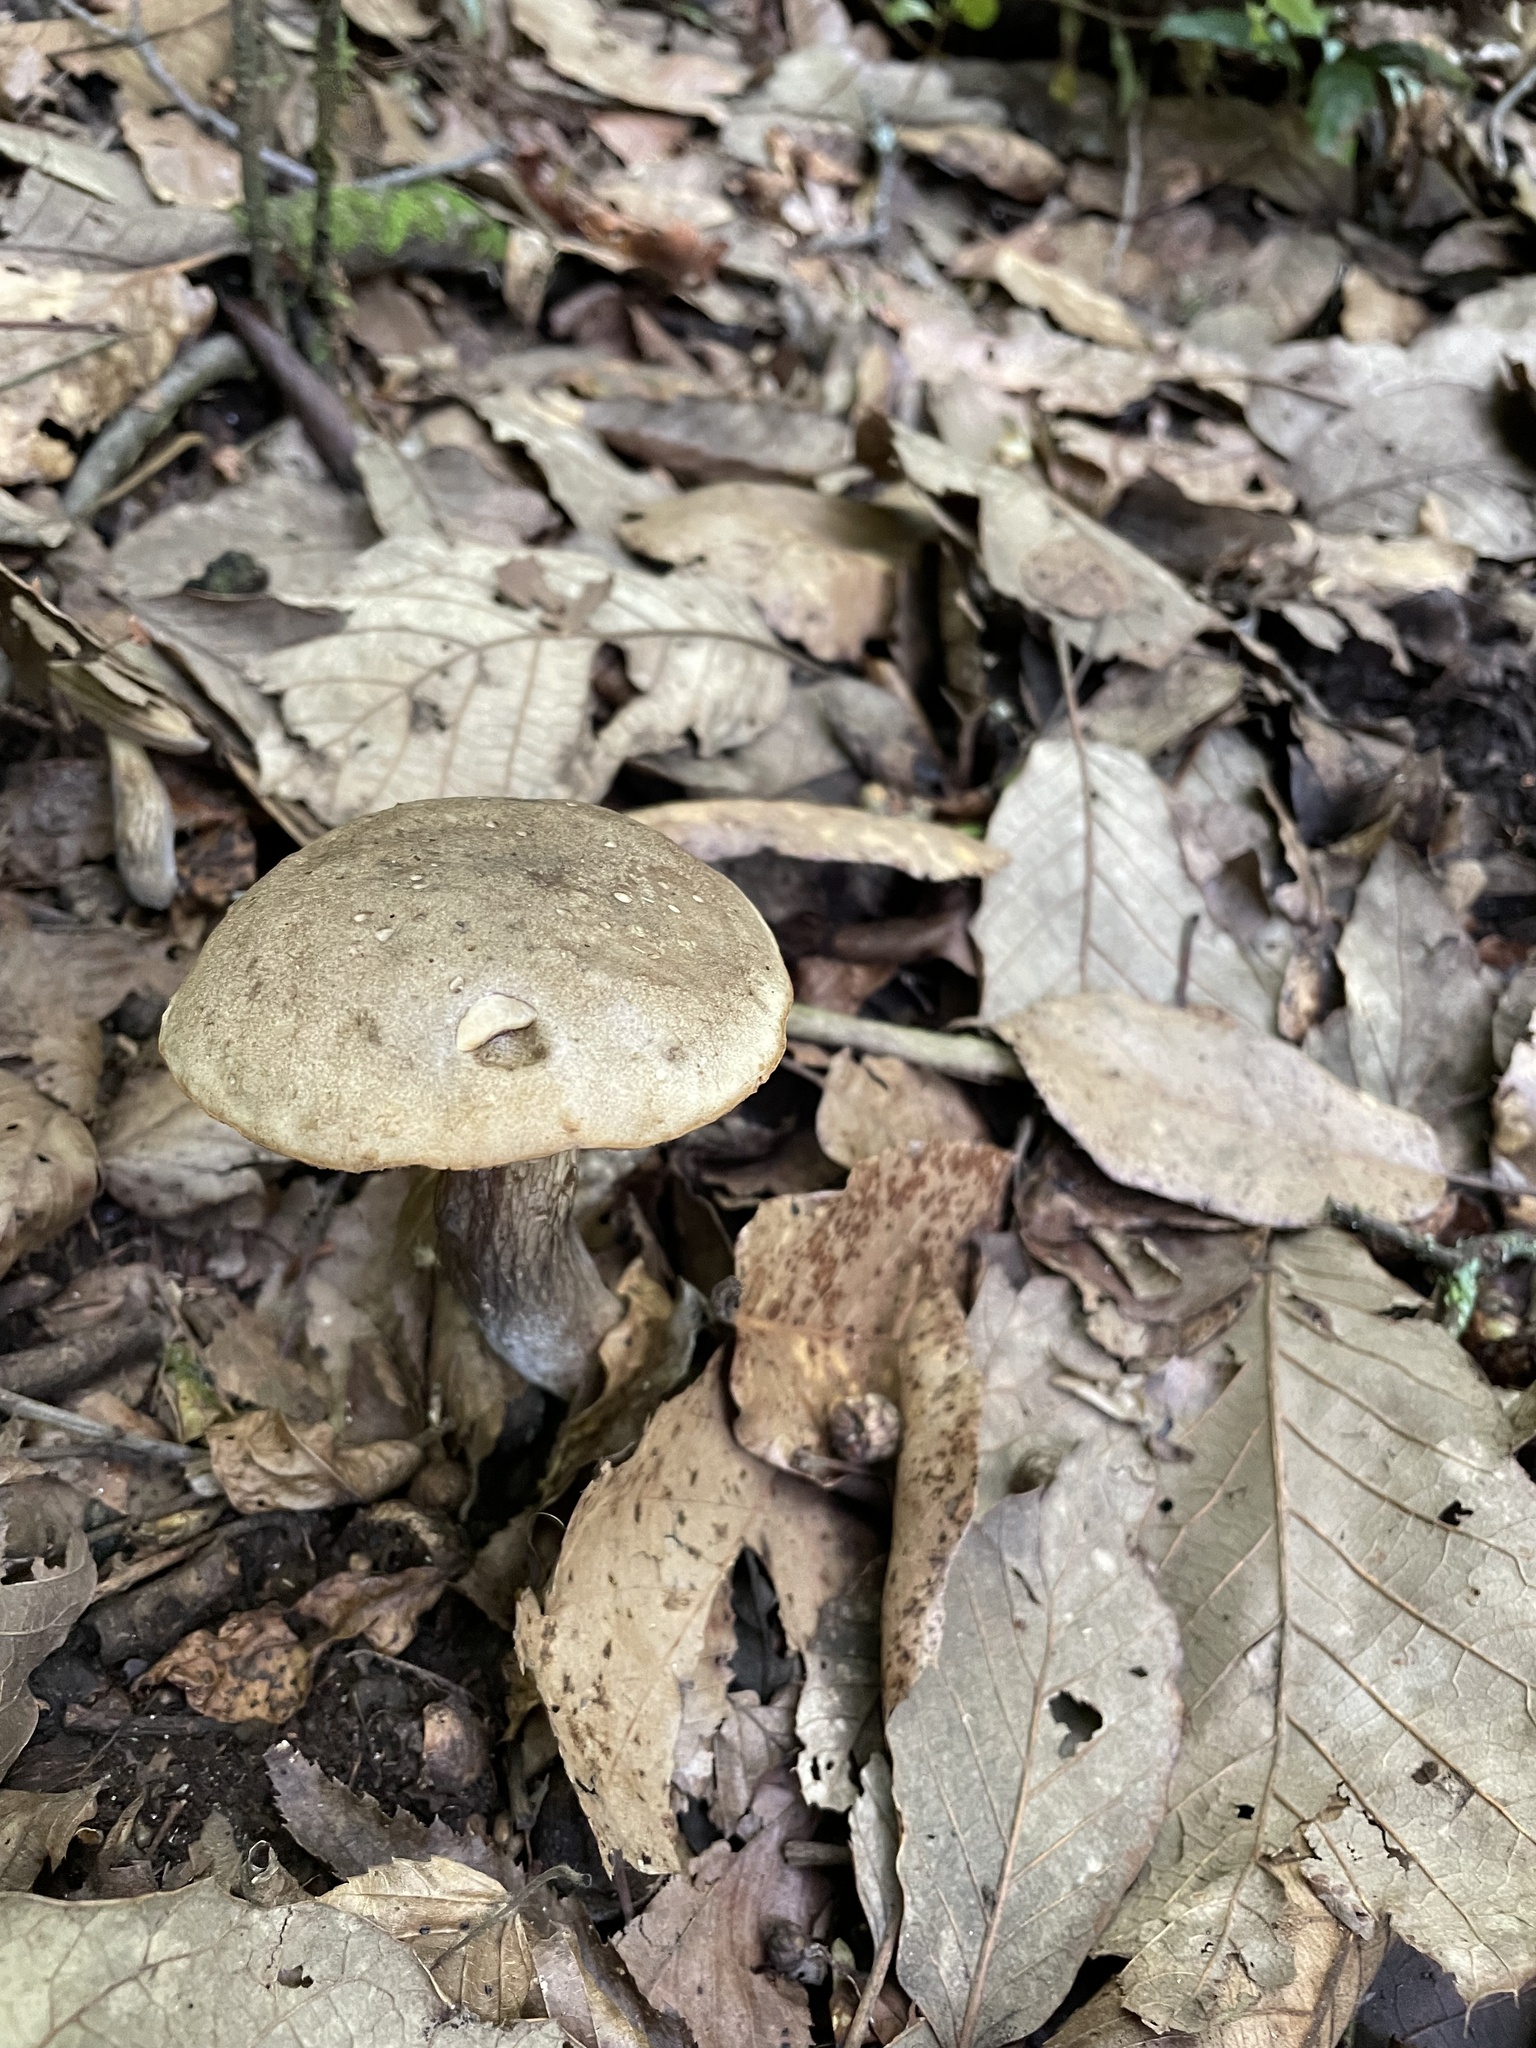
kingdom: Fungi
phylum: Basidiomycota
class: Agaricomycetes
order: Boletales
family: Boletaceae
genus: Retiboletus
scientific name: Retiboletus griseus
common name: Grey bolete
